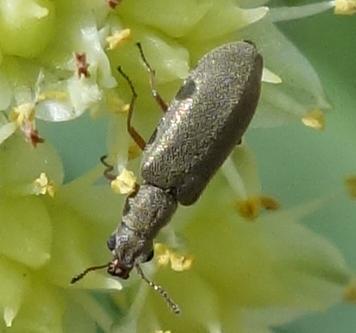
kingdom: Animalia
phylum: Arthropoda
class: Insecta
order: Coleoptera
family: Dasytidae
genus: Danacea
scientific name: Danacea nigritarsis
